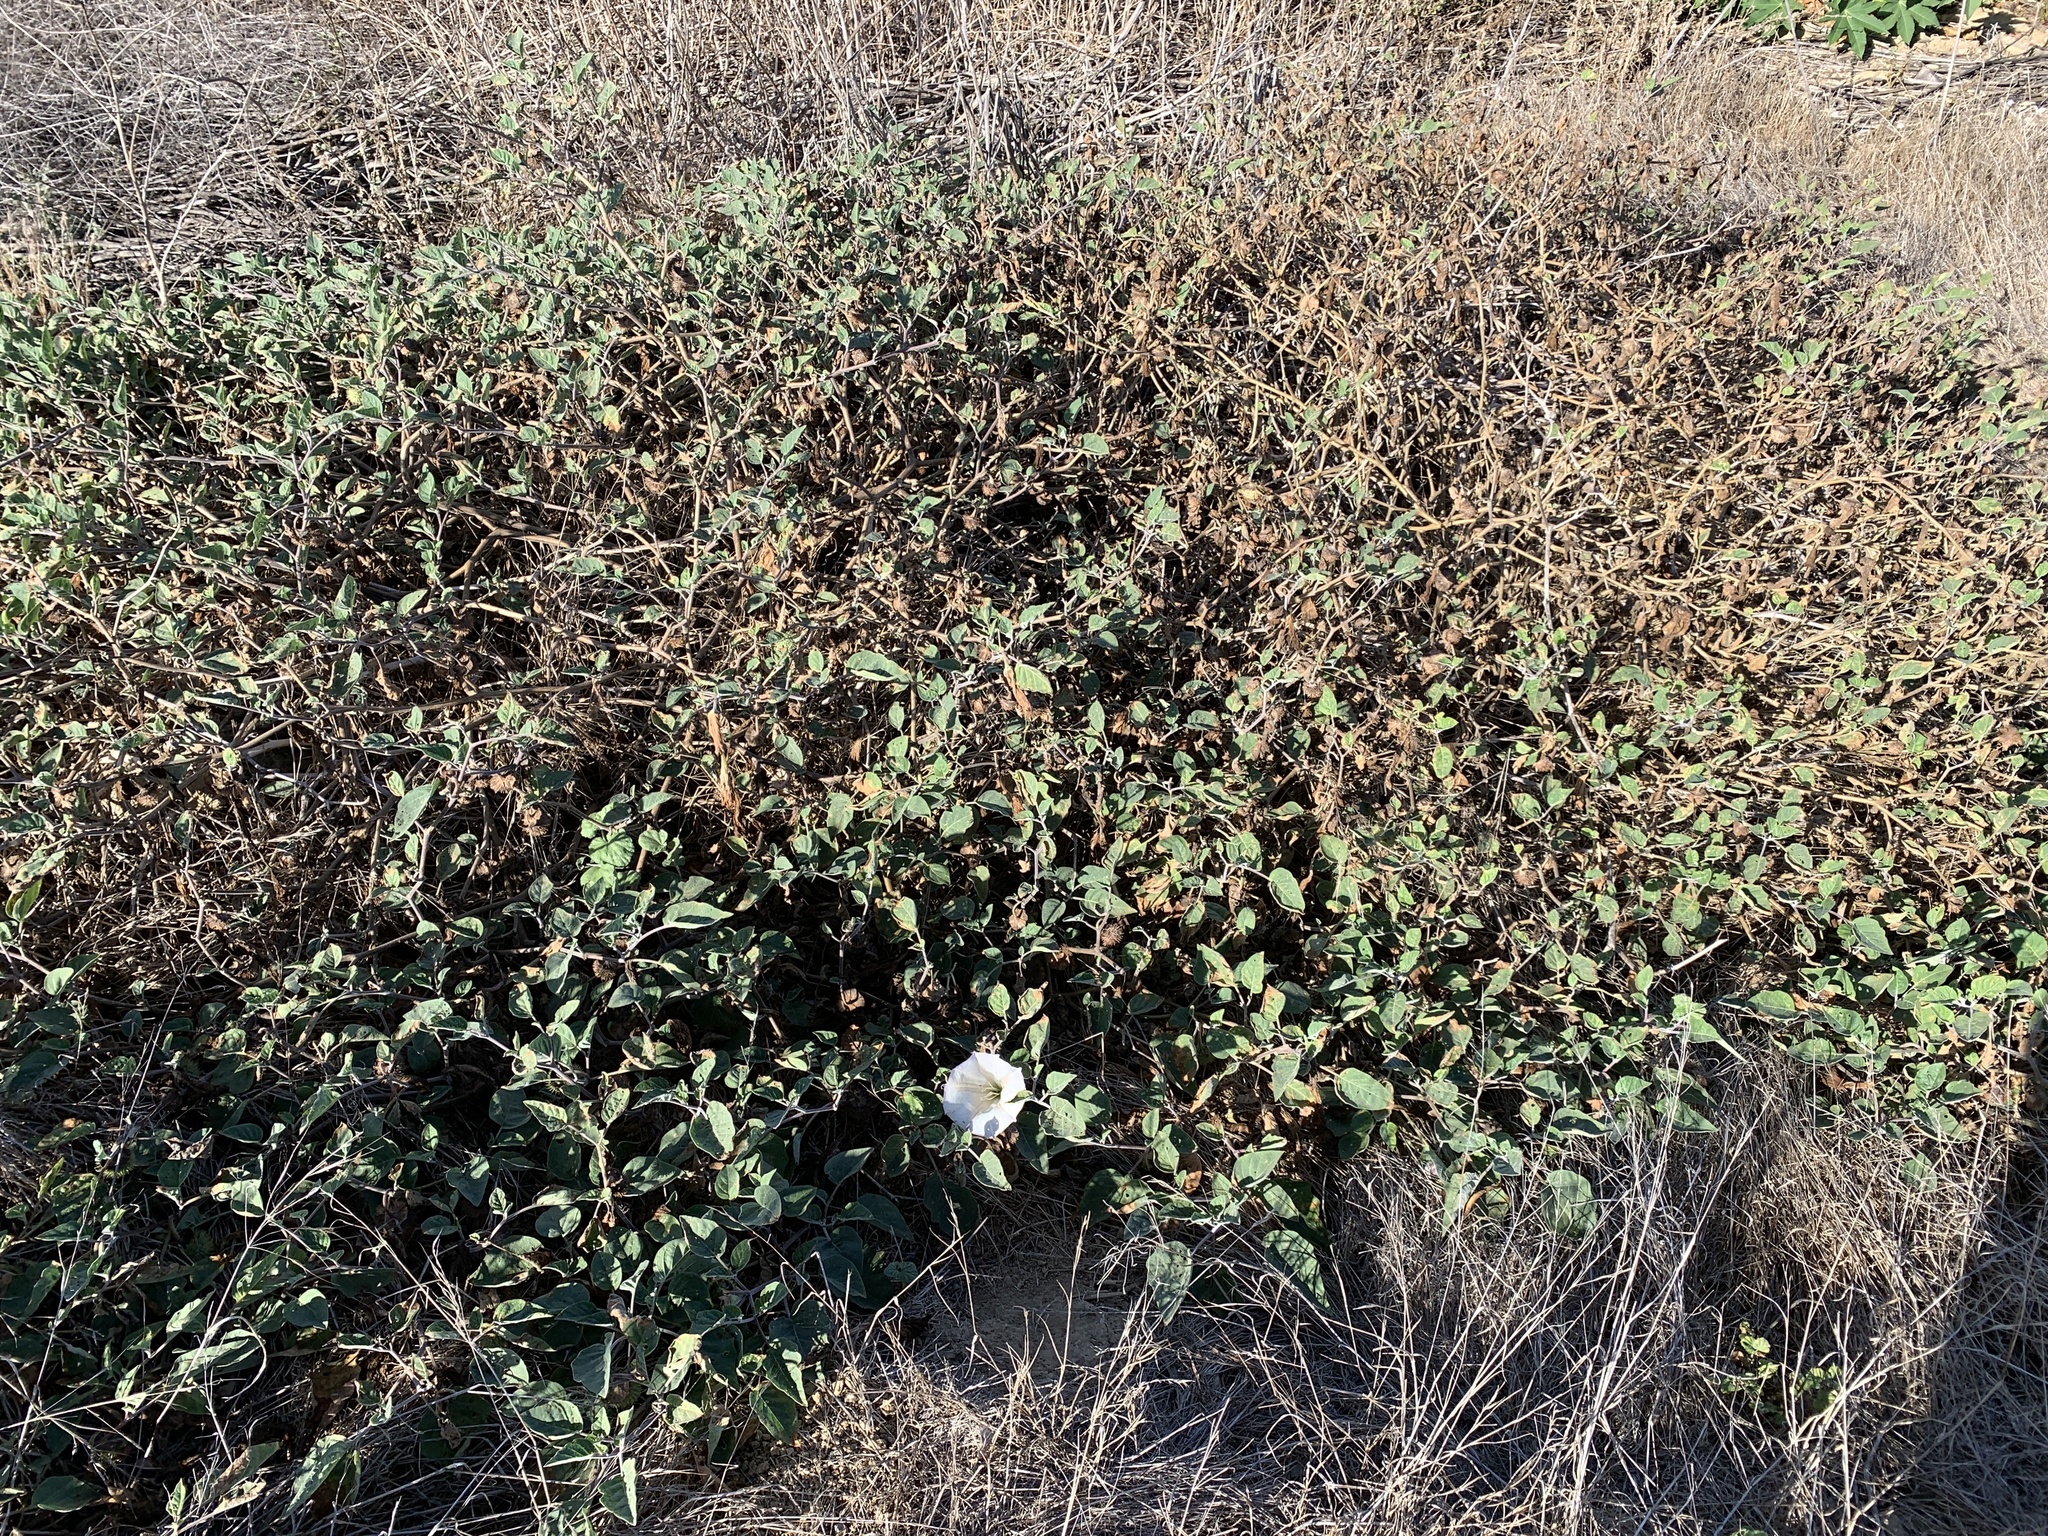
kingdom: Plantae
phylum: Tracheophyta
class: Magnoliopsida
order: Solanales
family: Solanaceae
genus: Datura
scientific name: Datura wrightii
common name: Sacred thorn-apple
